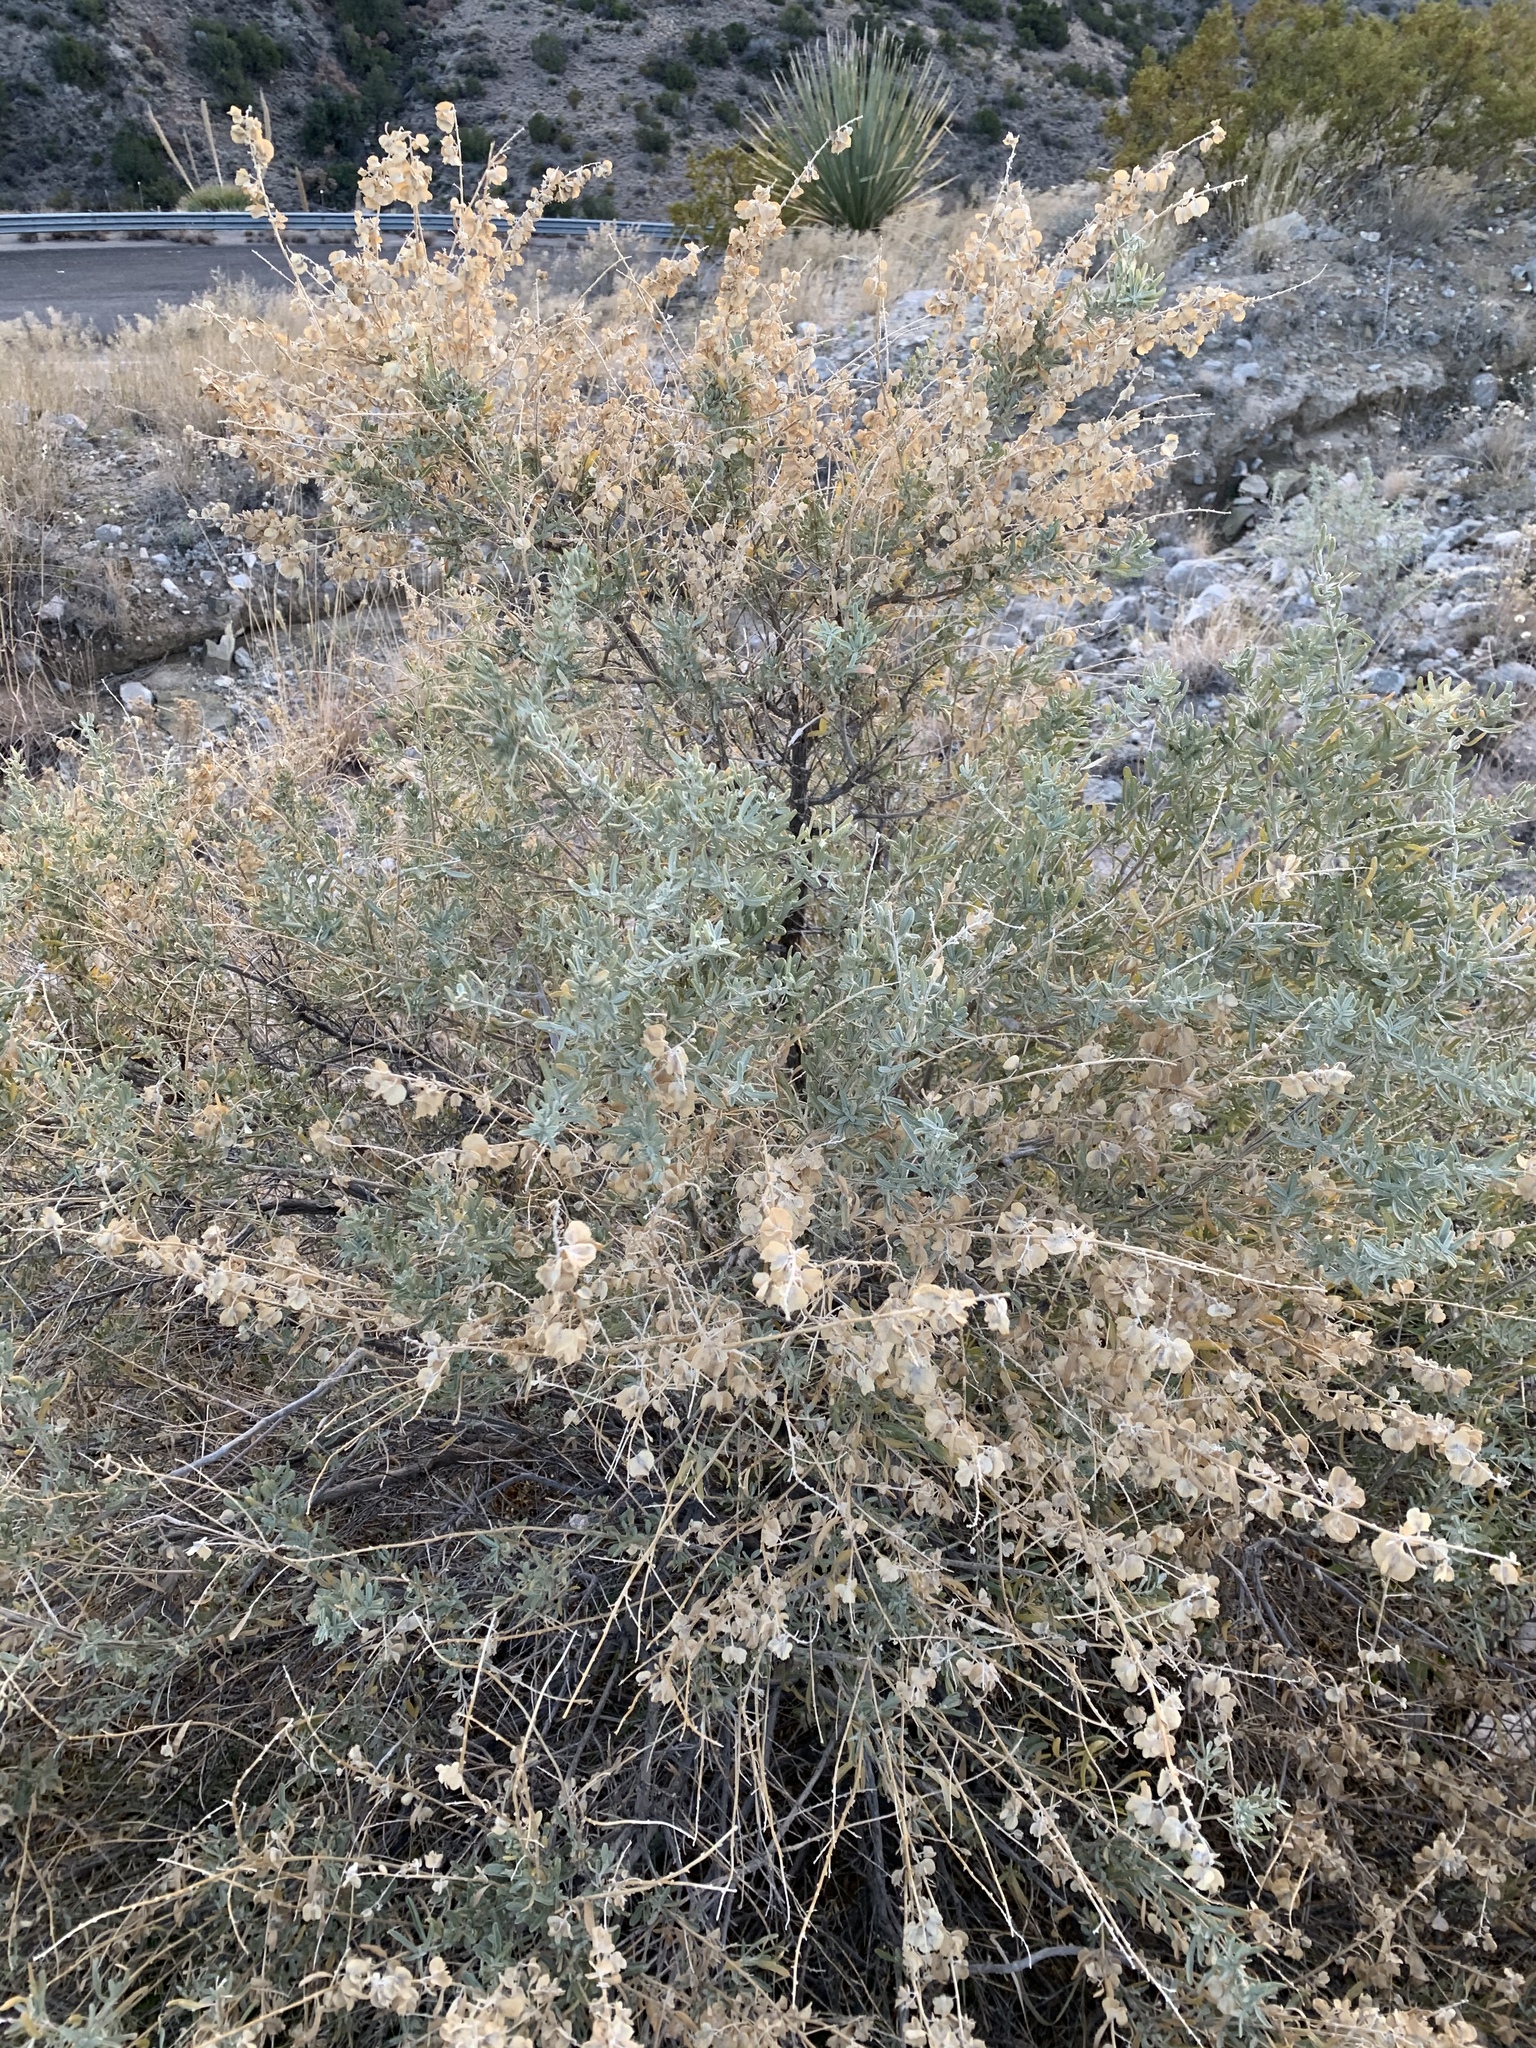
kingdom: Plantae
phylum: Tracheophyta
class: Magnoliopsida
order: Caryophyllales
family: Amaranthaceae
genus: Atriplex
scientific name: Atriplex canescens
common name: Four-wing saltbush
